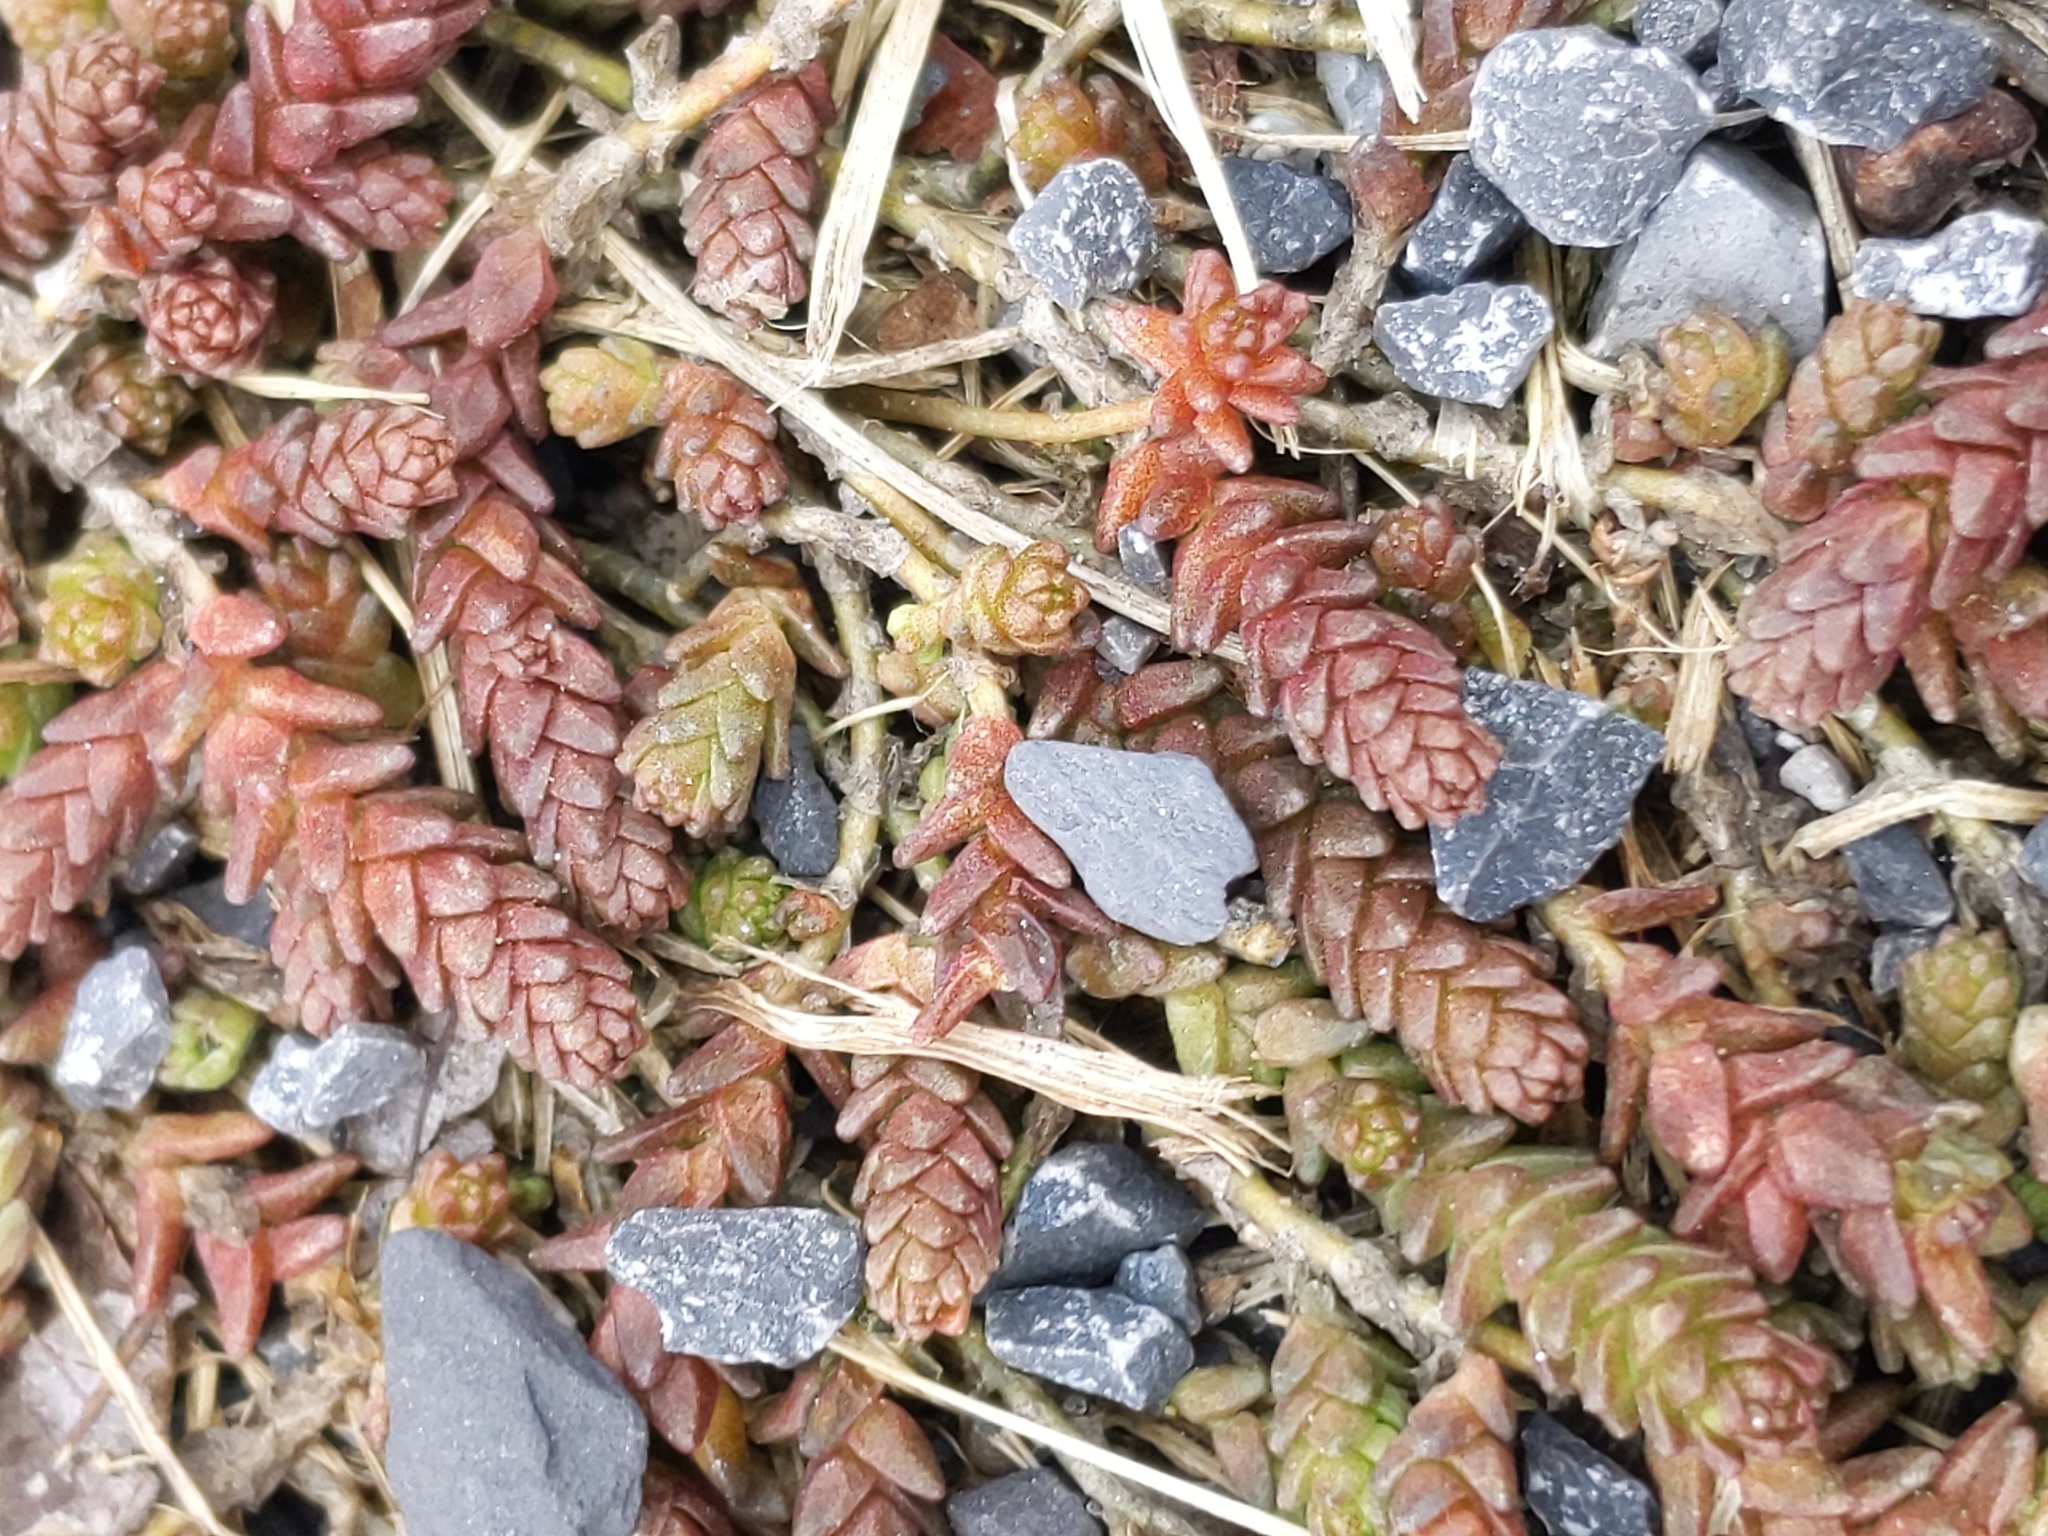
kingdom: Plantae
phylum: Tracheophyta
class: Magnoliopsida
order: Saxifragales
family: Crassulaceae
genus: Sedum
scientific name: Sedum acre
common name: Biting stonecrop
